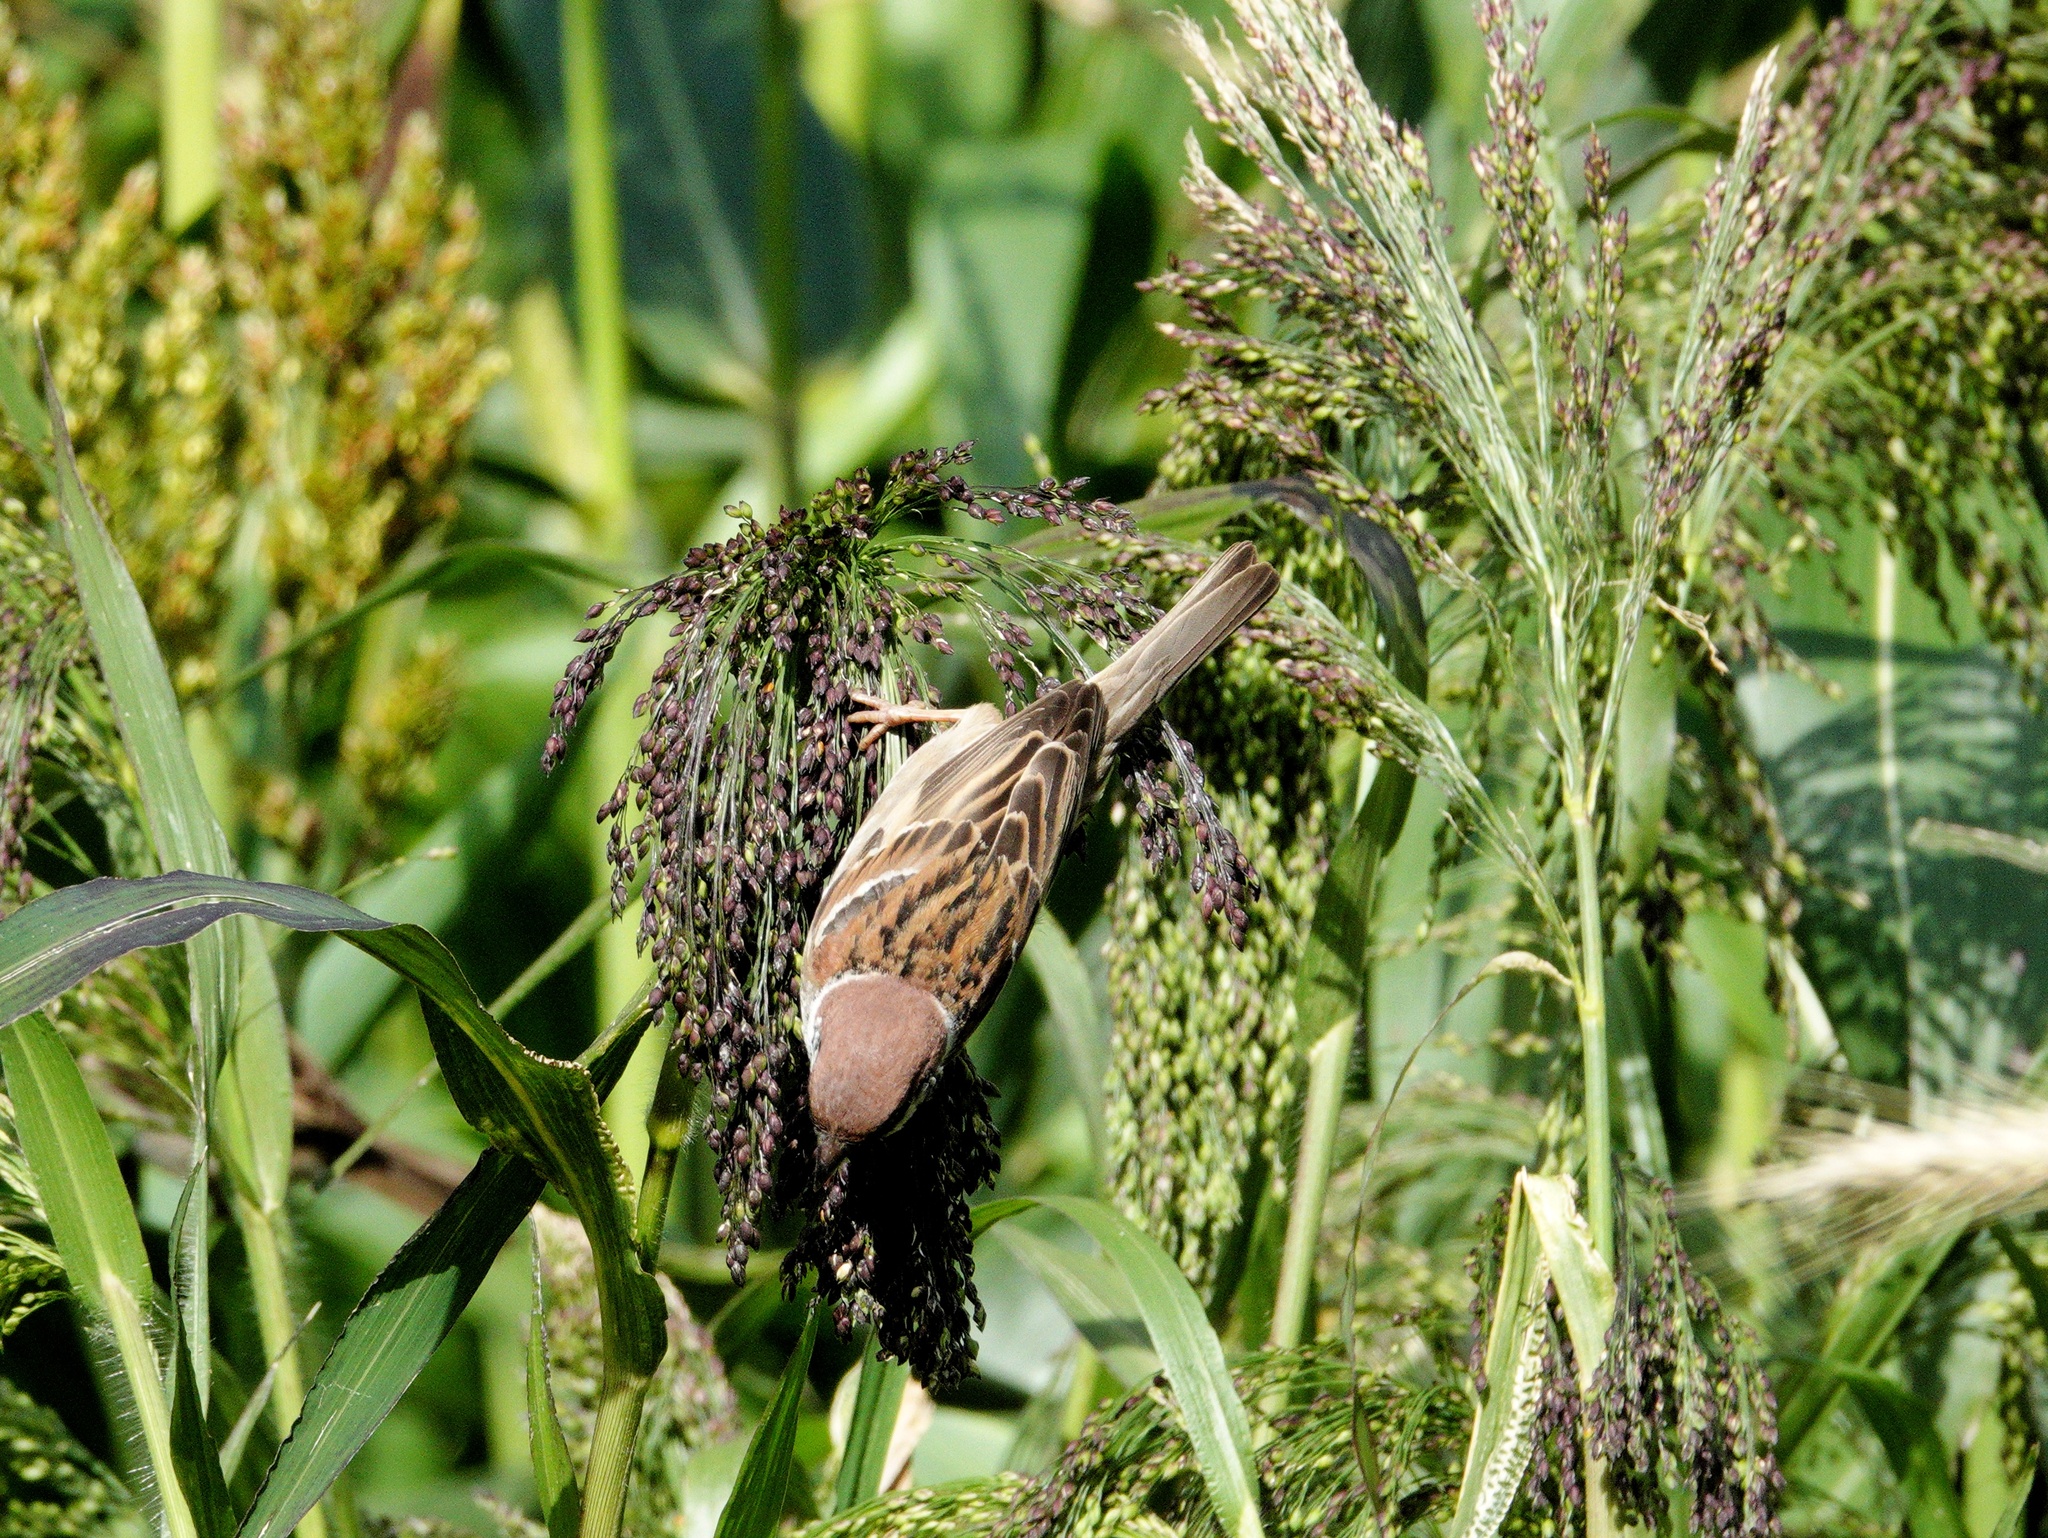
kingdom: Animalia
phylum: Chordata
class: Aves
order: Passeriformes
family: Passeridae
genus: Passer
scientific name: Passer montanus
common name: Eurasian tree sparrow
